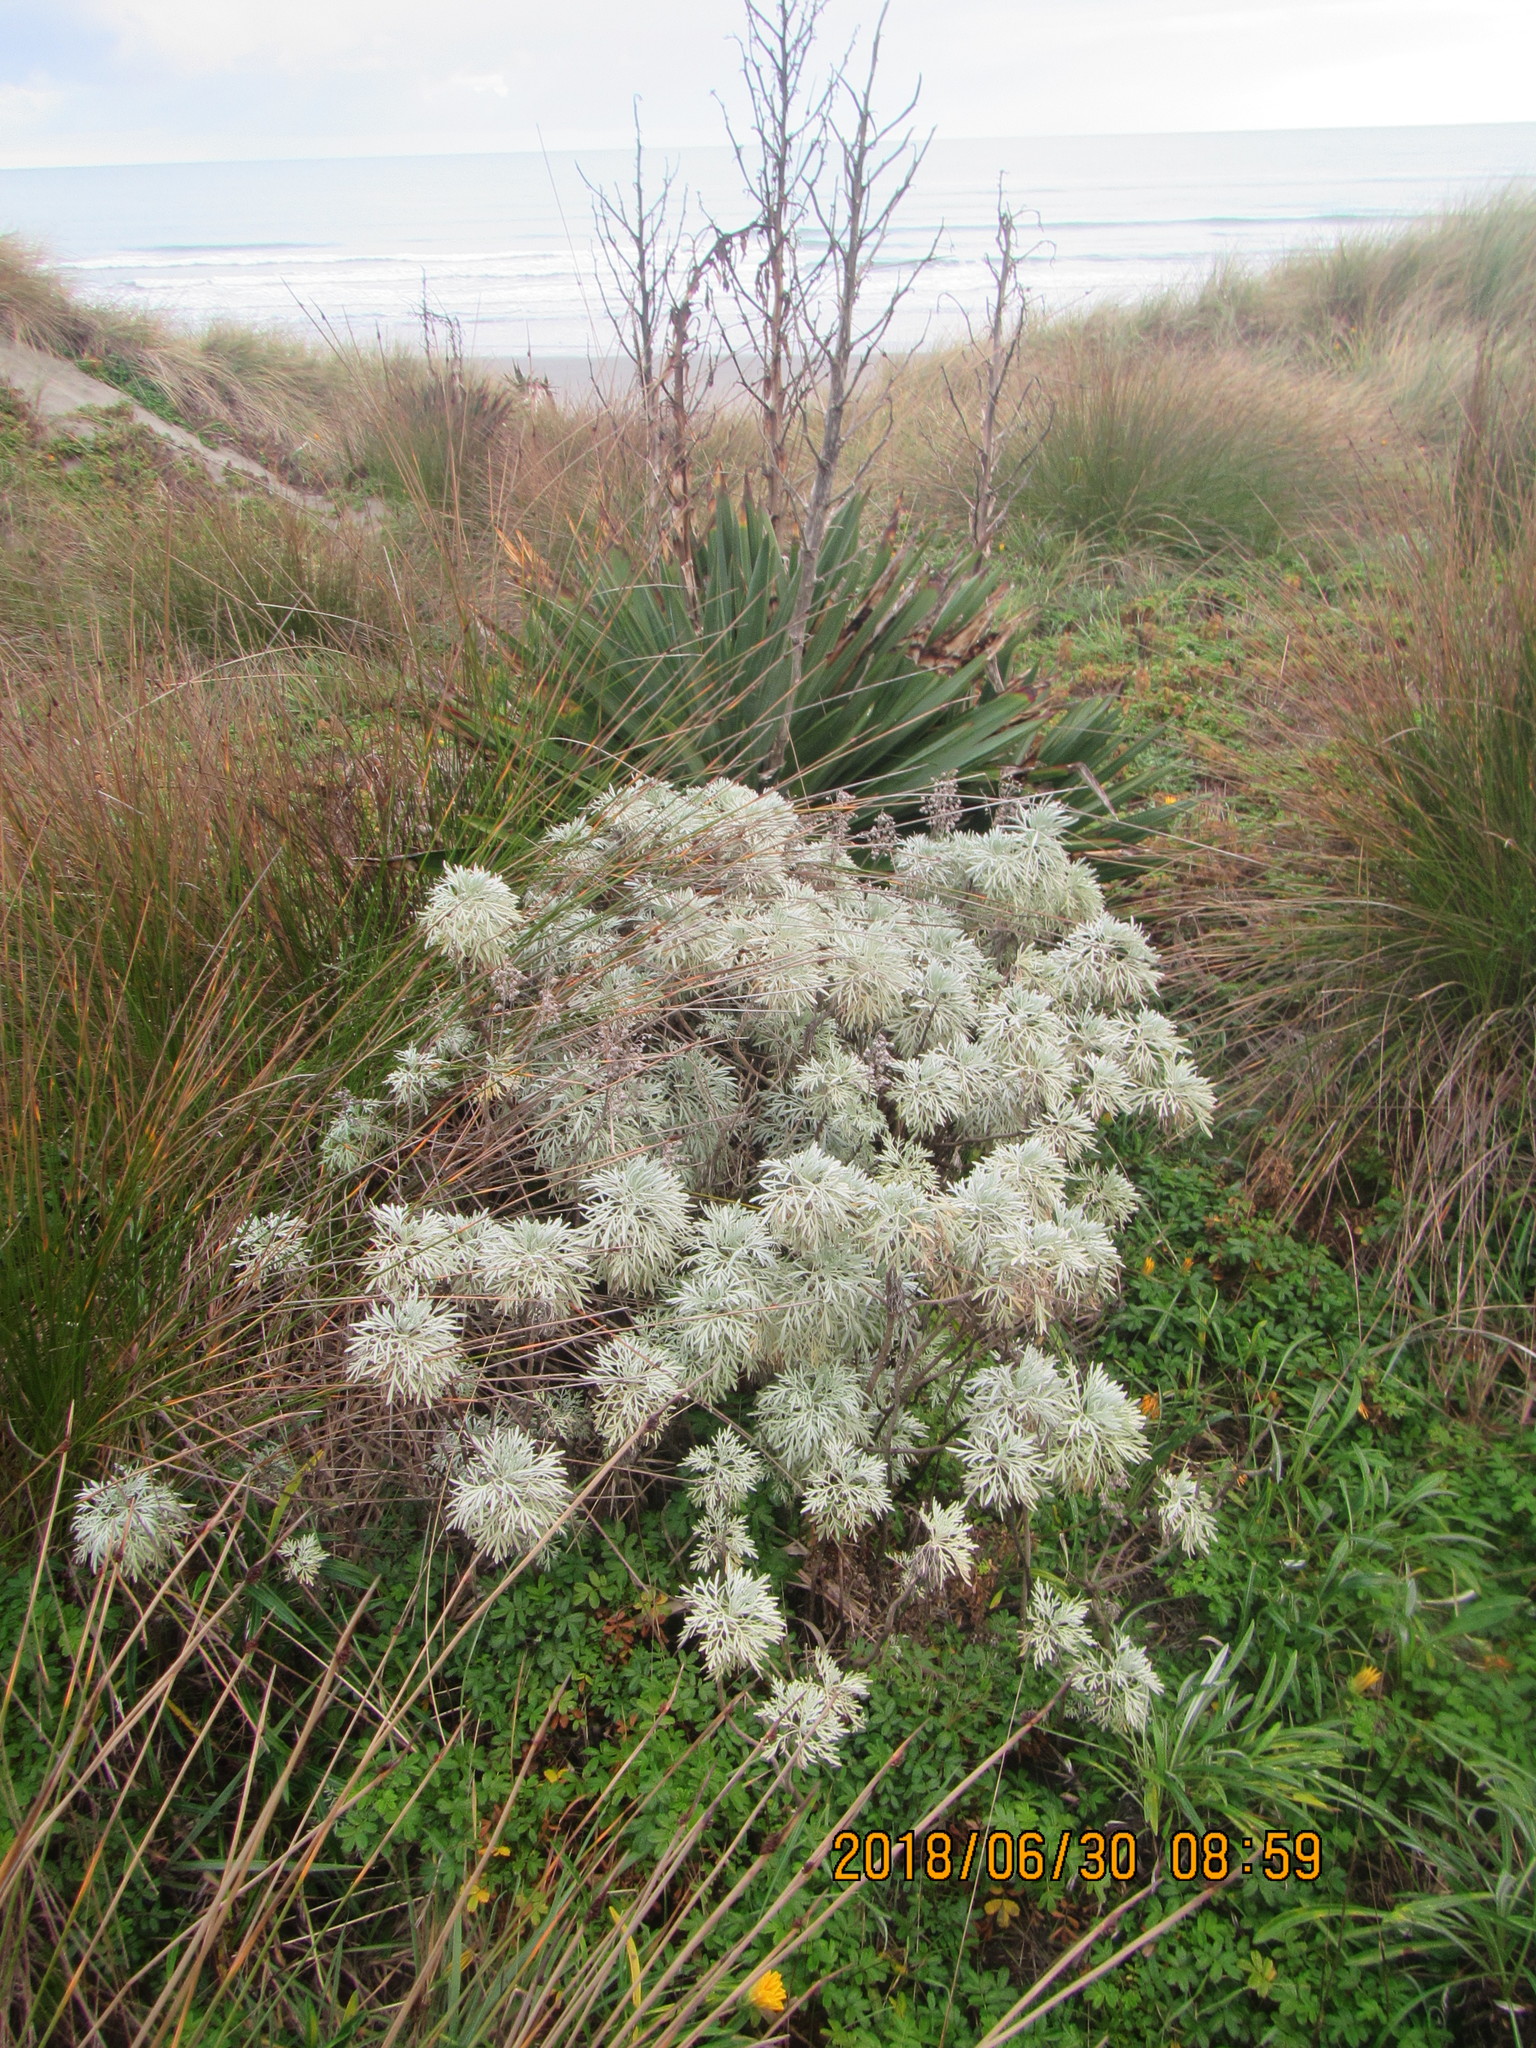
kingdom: Plantae
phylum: Tracheophyta
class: Magnoliopsida
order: Asterales
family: Asteraceae
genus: Artemisia
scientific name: Artemisia arborescens
